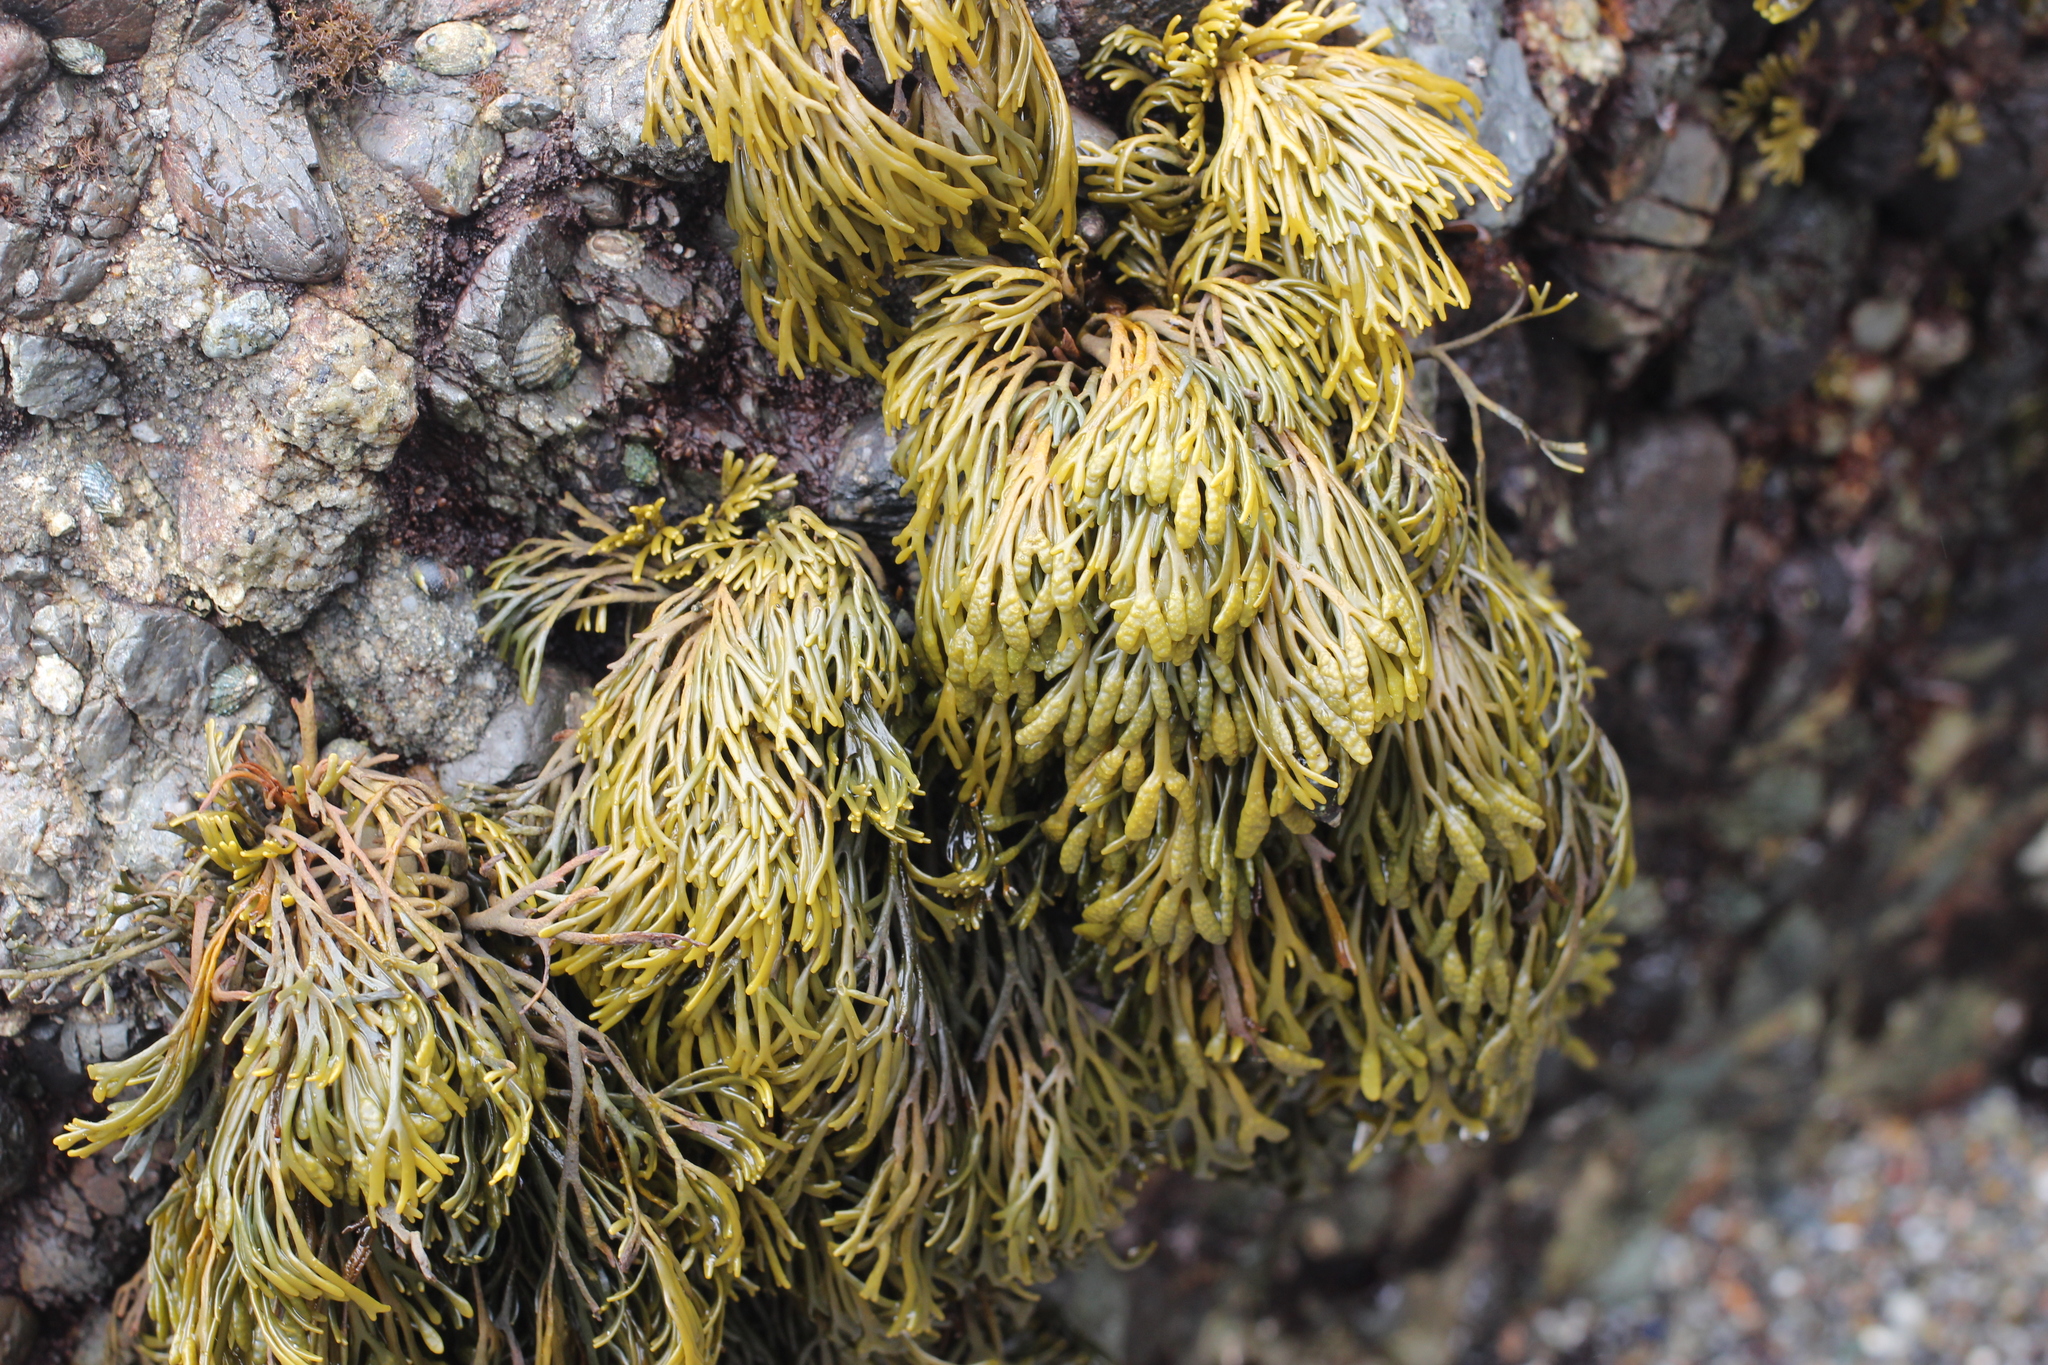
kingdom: Chromista
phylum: Ochrophyta
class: Phaeophyceae
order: Fucales
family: Fucaceae
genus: Pelvetiopsis
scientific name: Pelvetiopsis arborescens
